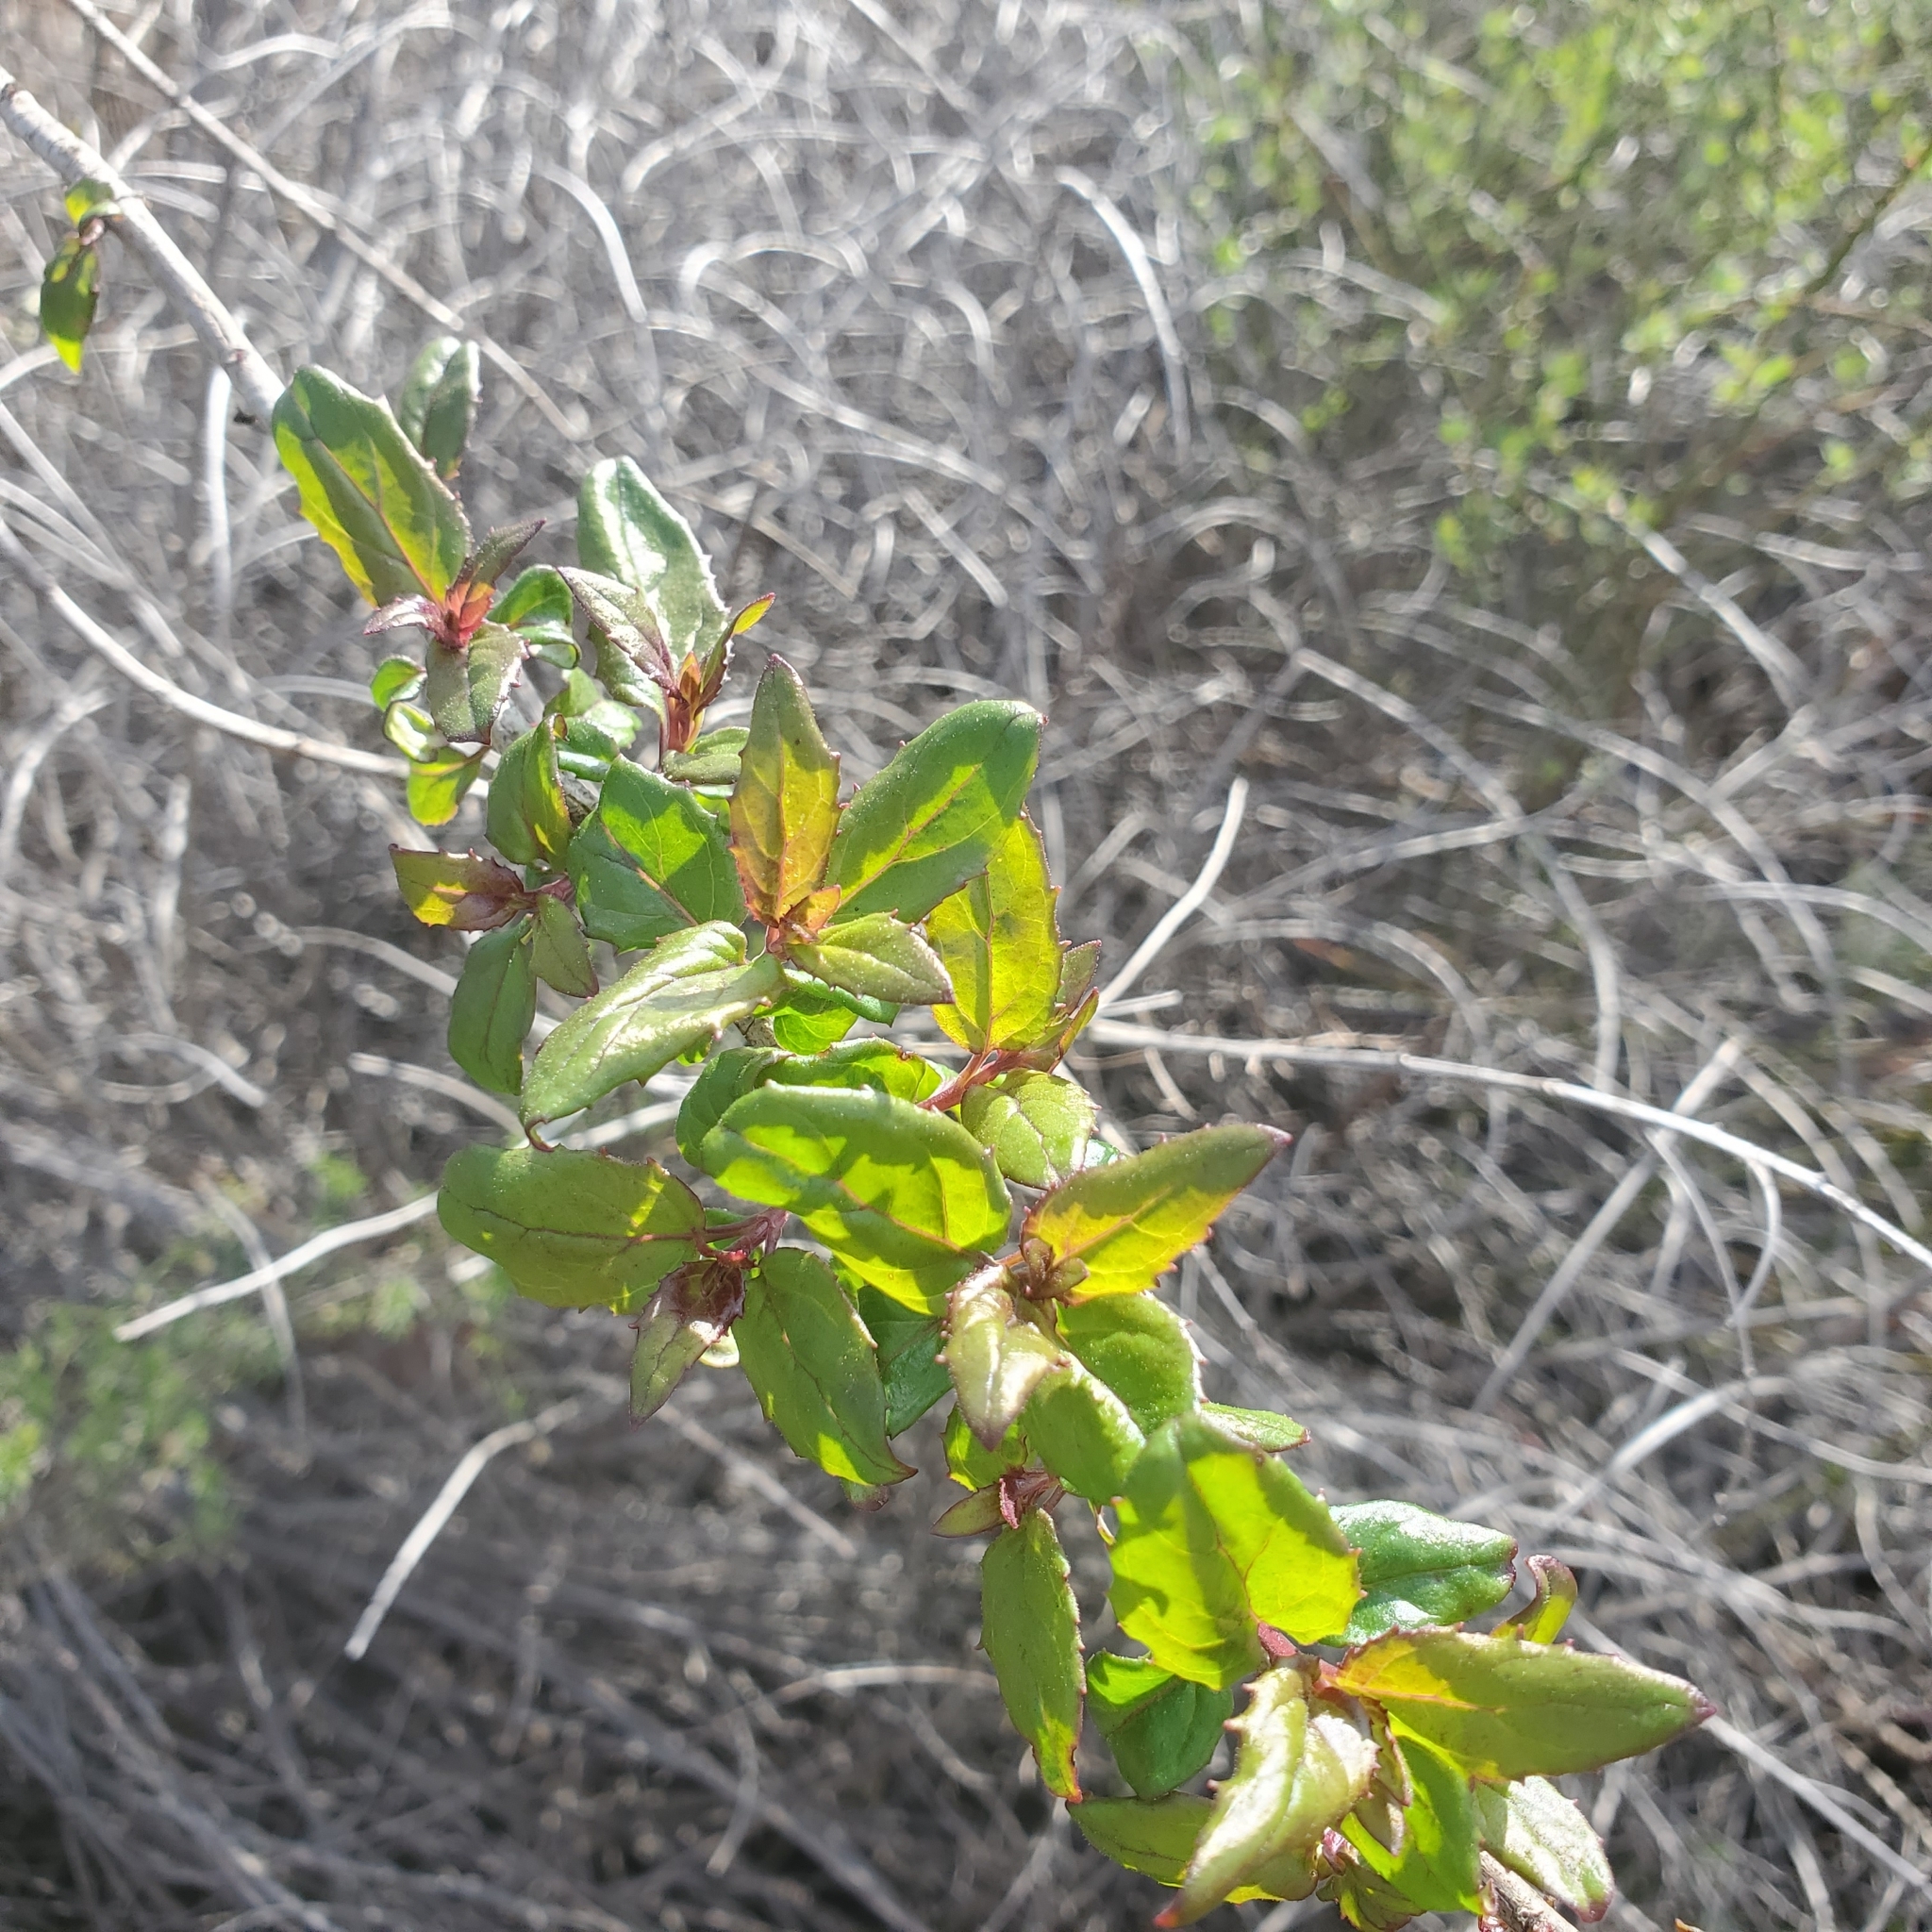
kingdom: Plantae
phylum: Tracheophyta
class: Magnoliopsida
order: Lamiales
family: Plantaginaceae
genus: Keckiella
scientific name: Keckiella cordifolia
